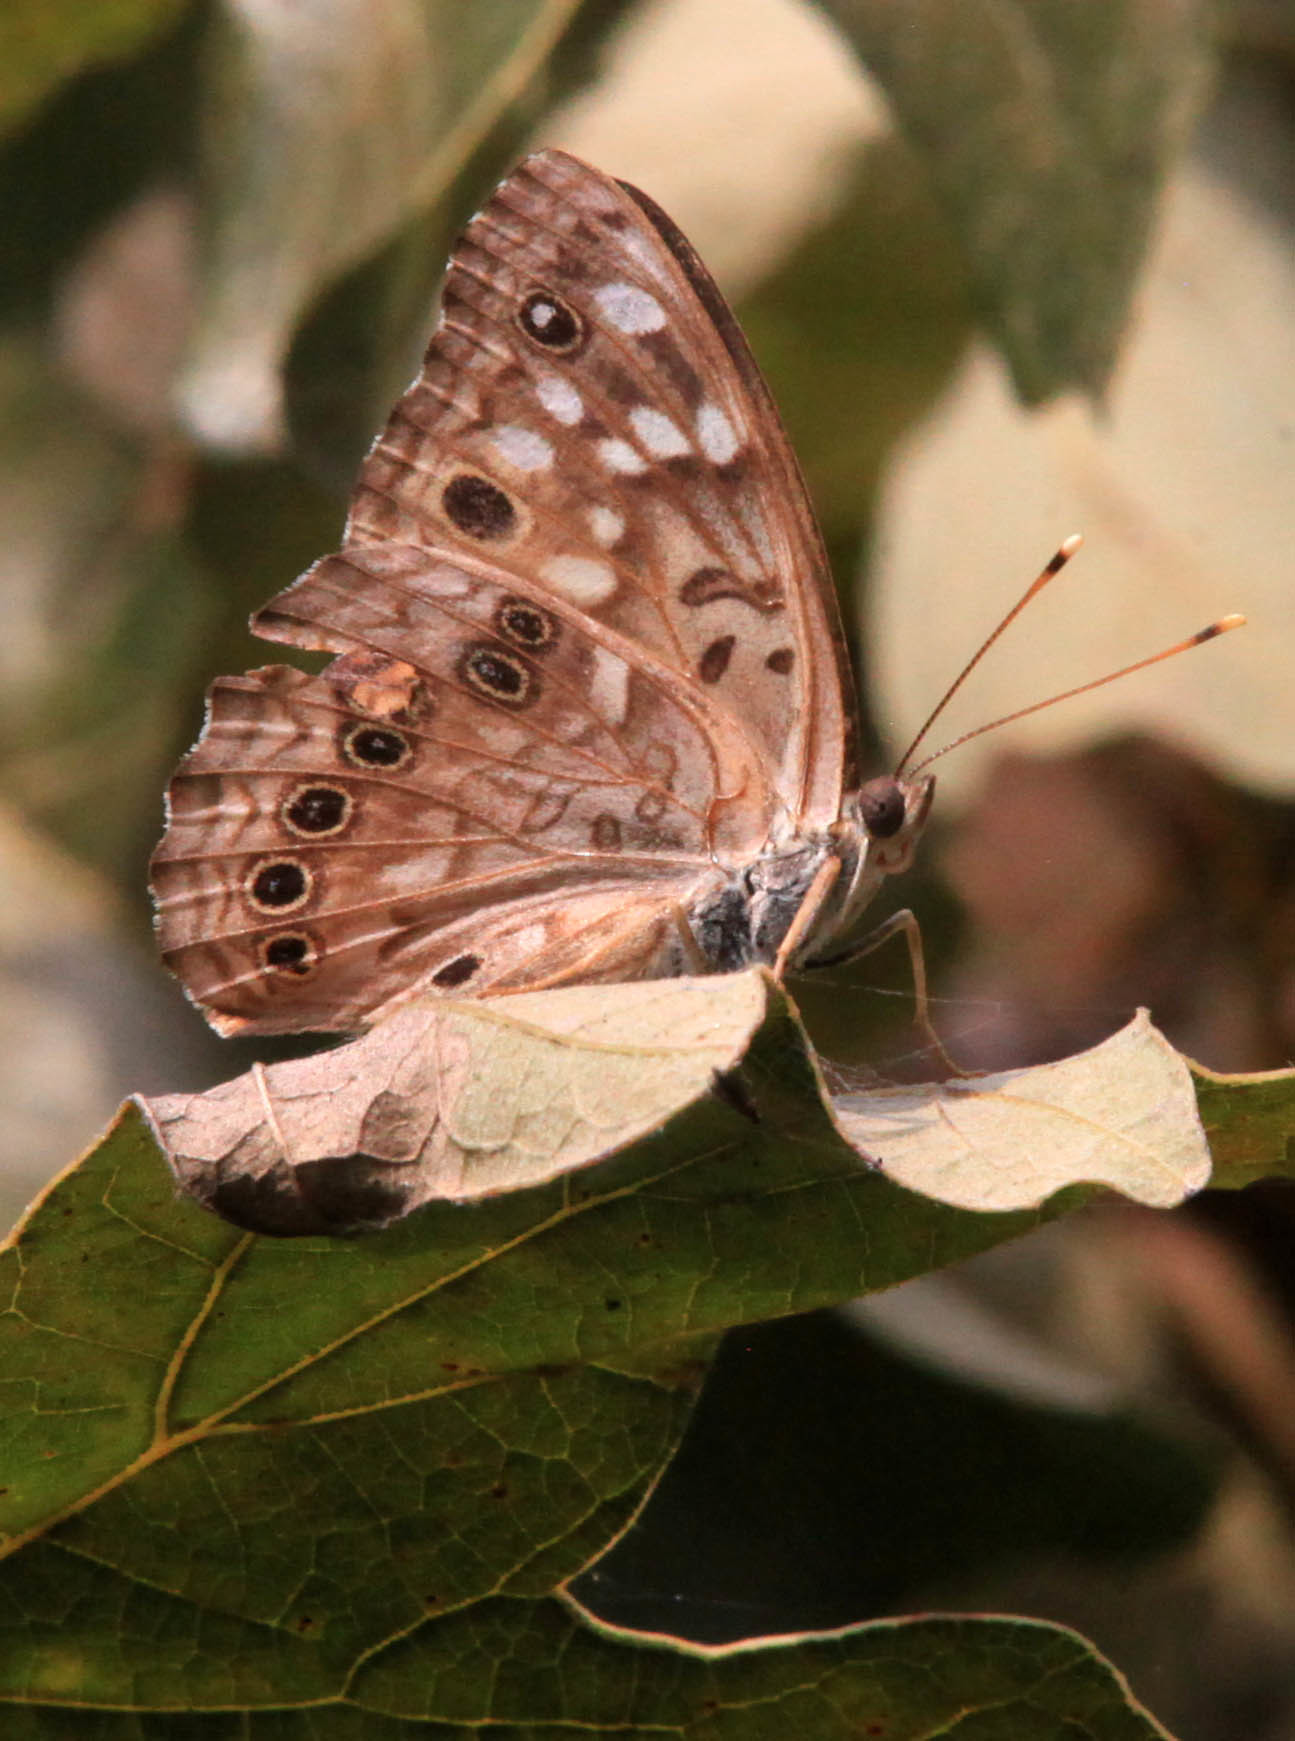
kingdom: Animalia
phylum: Arthropoda
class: Insecta
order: Lepidoptera
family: Nymphalidae
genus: Asterocampa
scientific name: Asterocampa celtis
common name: Hackberry emperor
